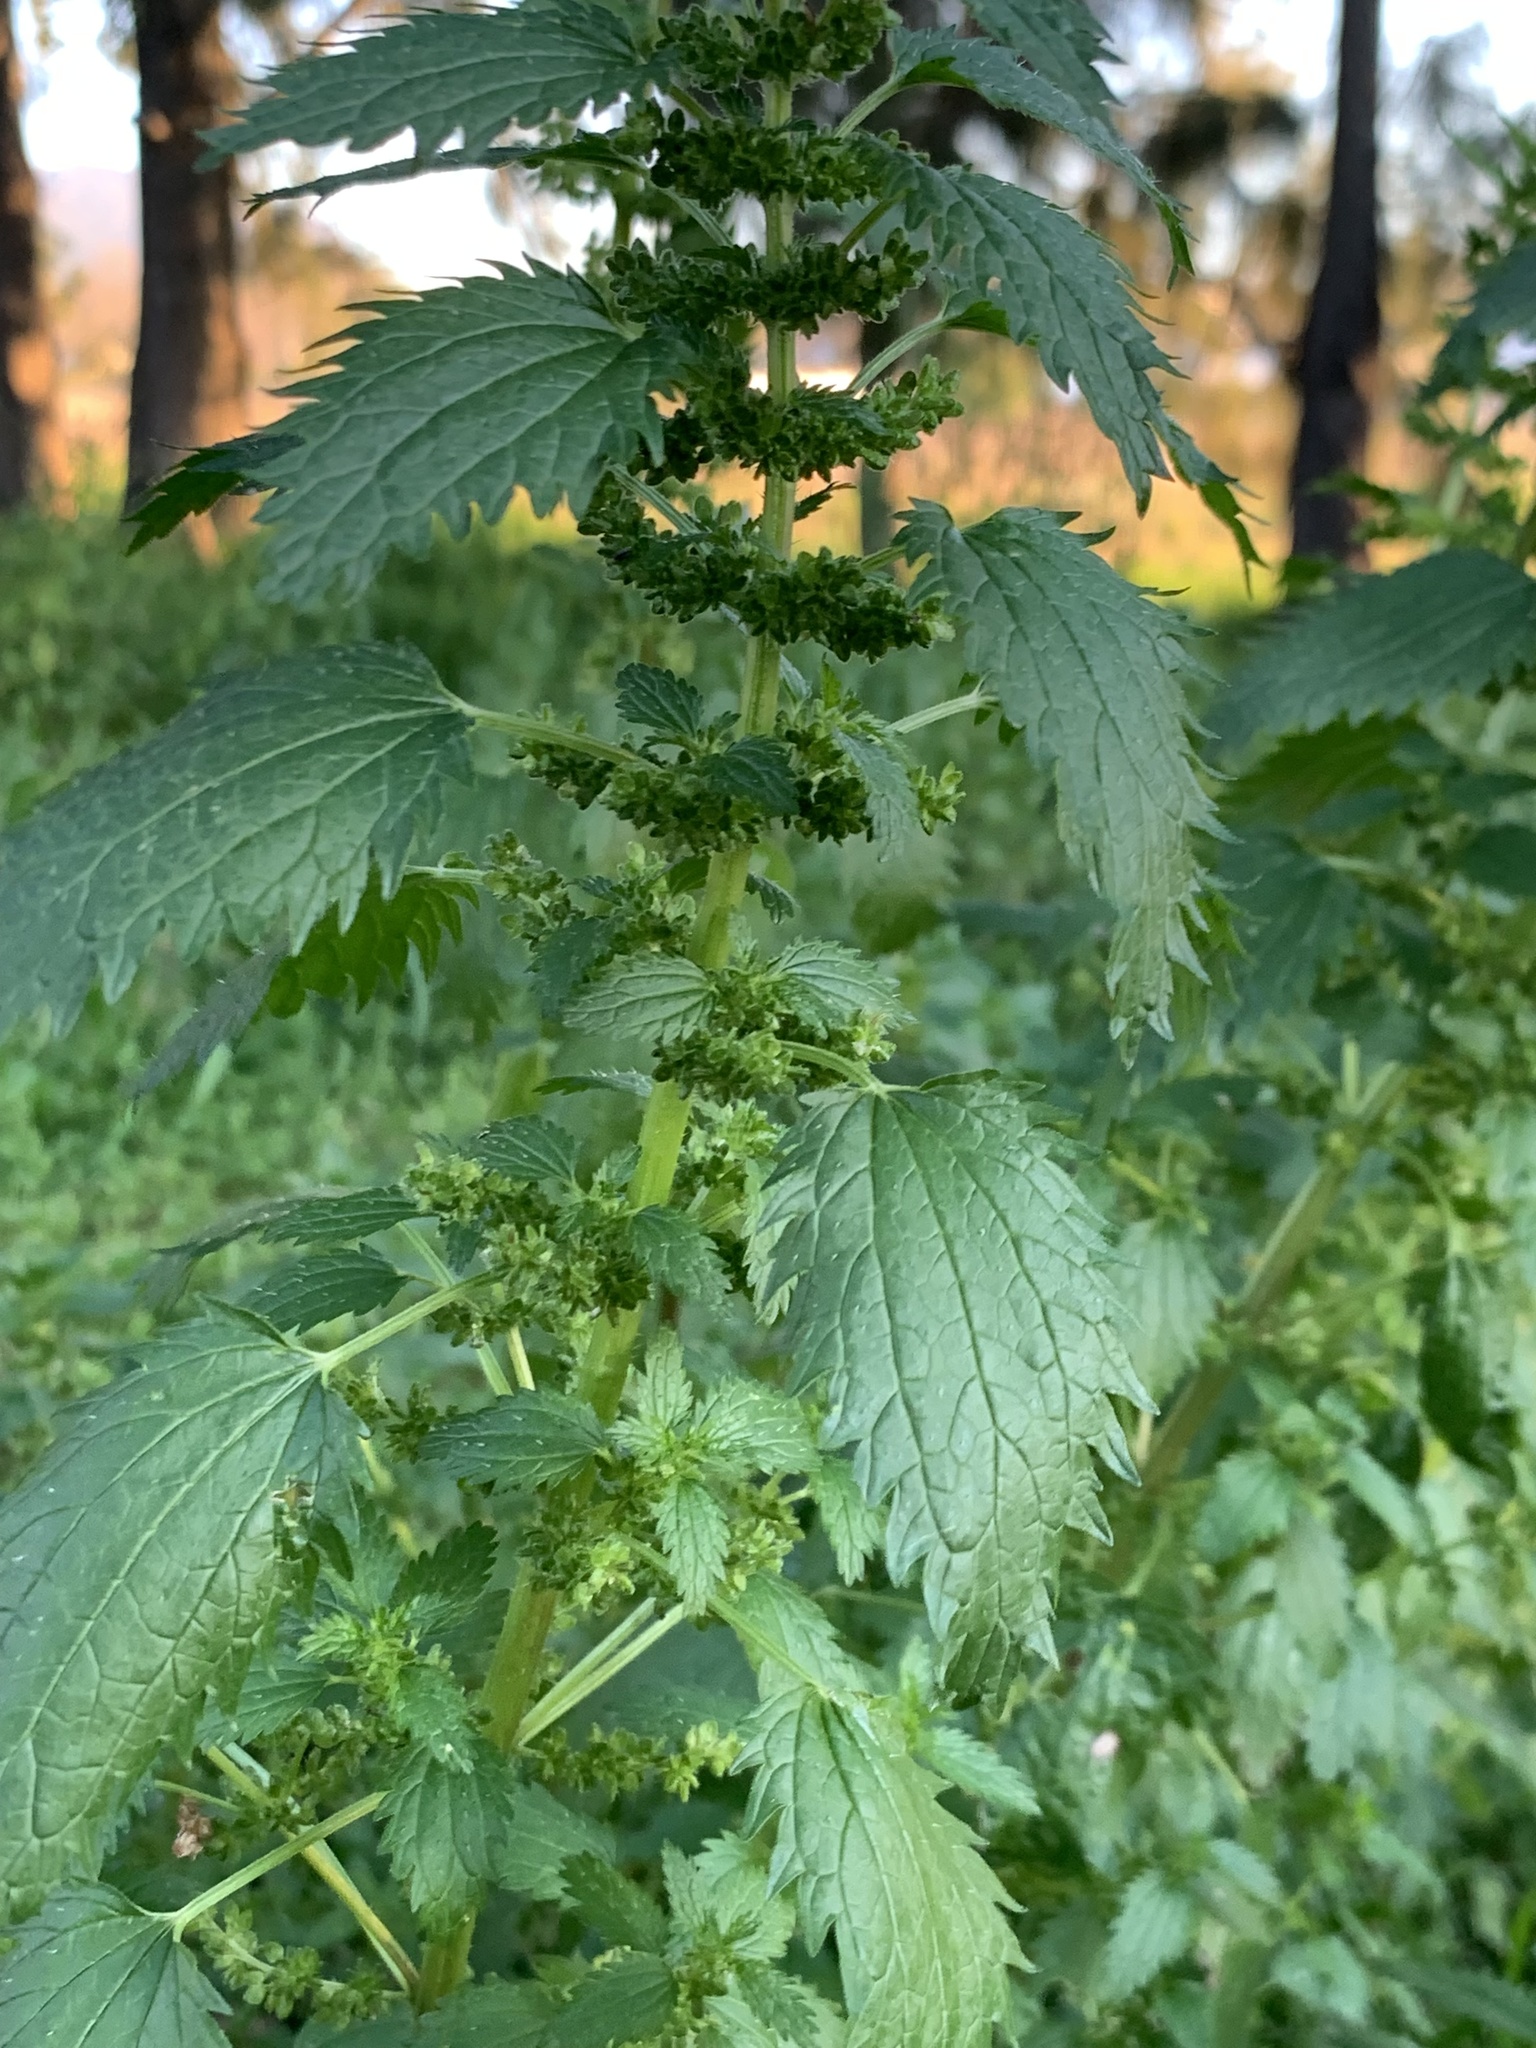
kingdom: Plantae
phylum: Tracheophyta
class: Magnoliopsida
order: Rosales
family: Urticaceae
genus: Urtica
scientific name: Urtica urens
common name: Dwarf nettle
